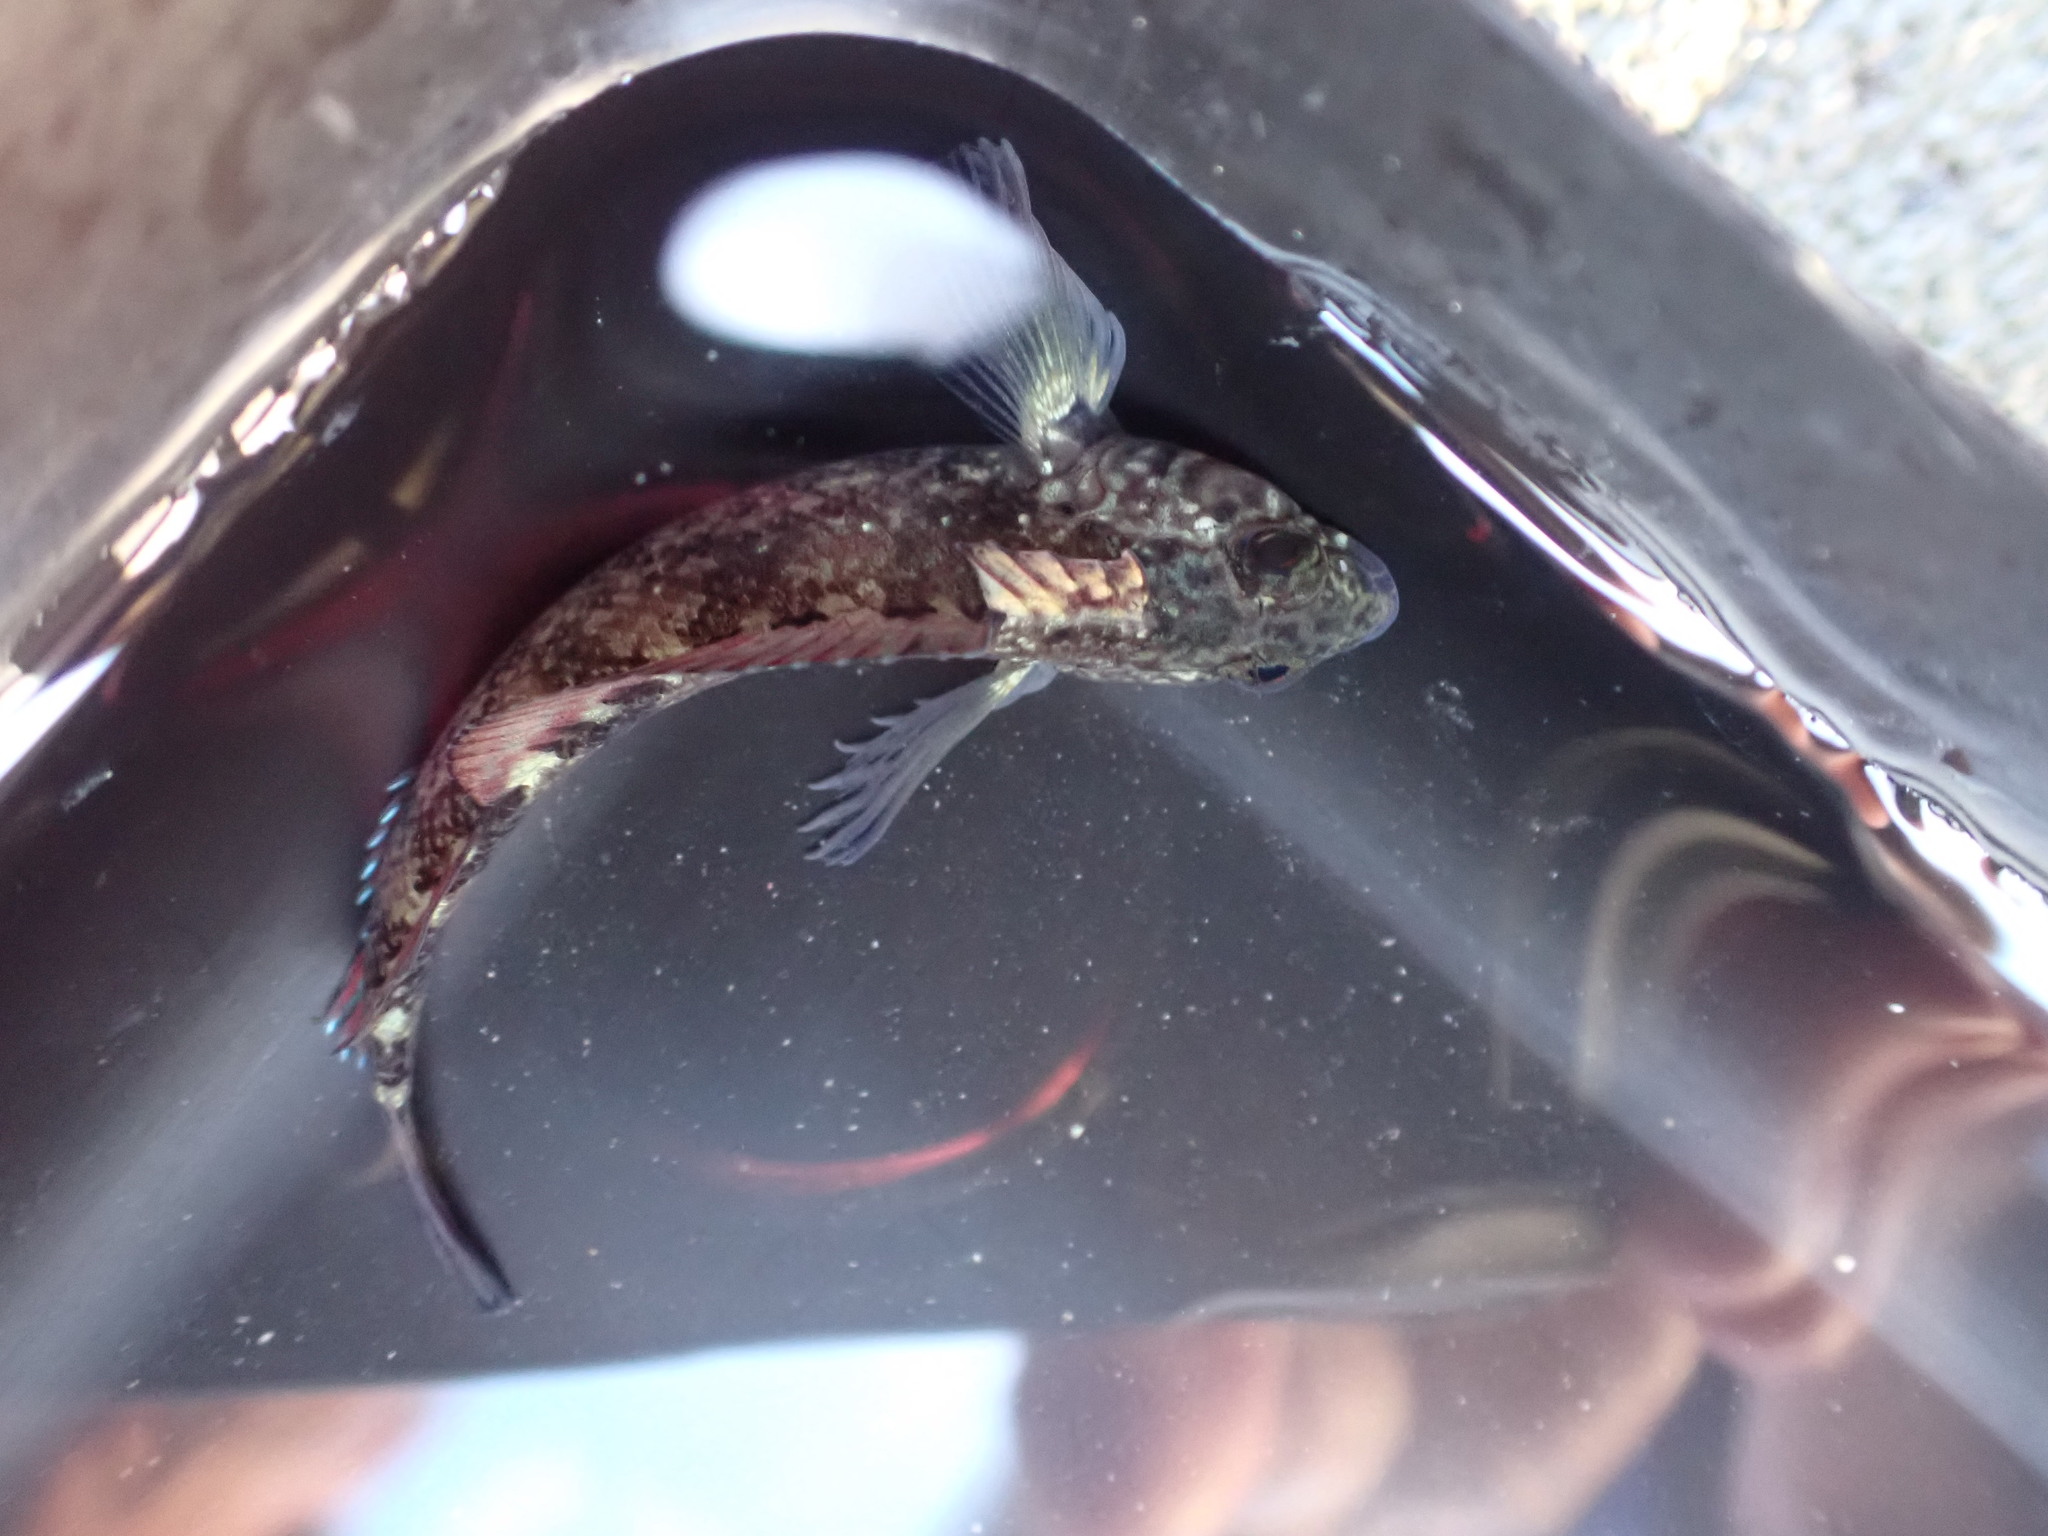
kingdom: Animalia
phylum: Chordata
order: Perciformes
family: Tripterygiidae
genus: Forsterygion
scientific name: Forsterygion lapillum
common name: Common triplefin
